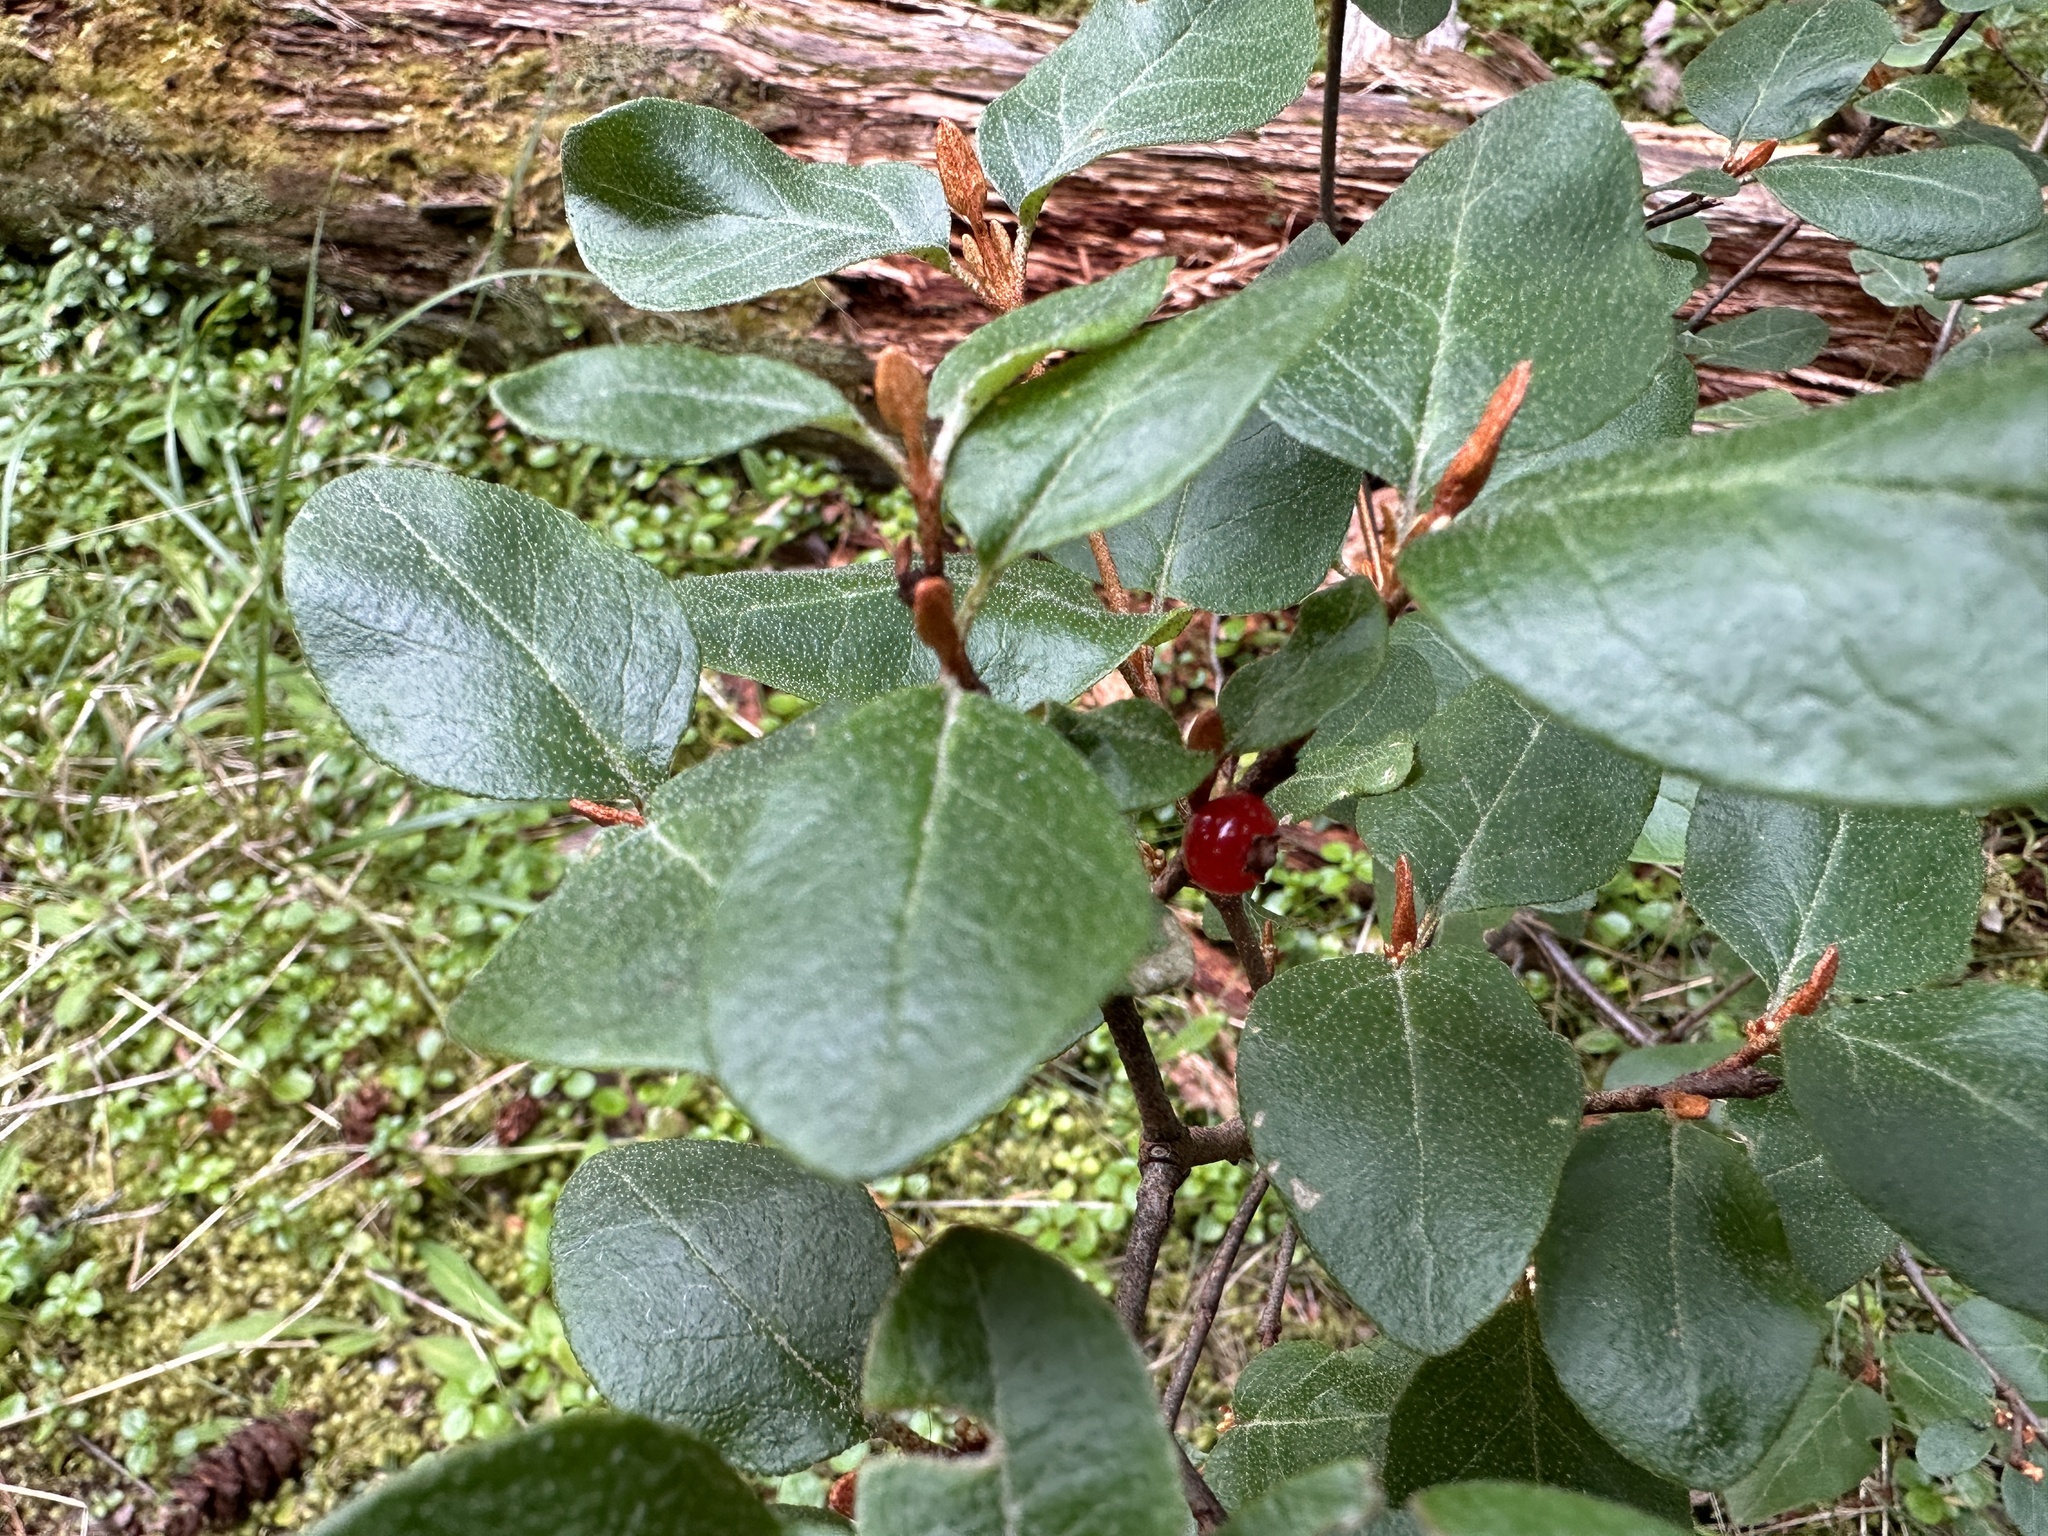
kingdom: Plantae
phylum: Tracheophyta
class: Magnoliopsida
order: Rosales
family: Elaeagnaceae
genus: Shepherdia
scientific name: Shepherdia canadensis
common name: Soapberry
